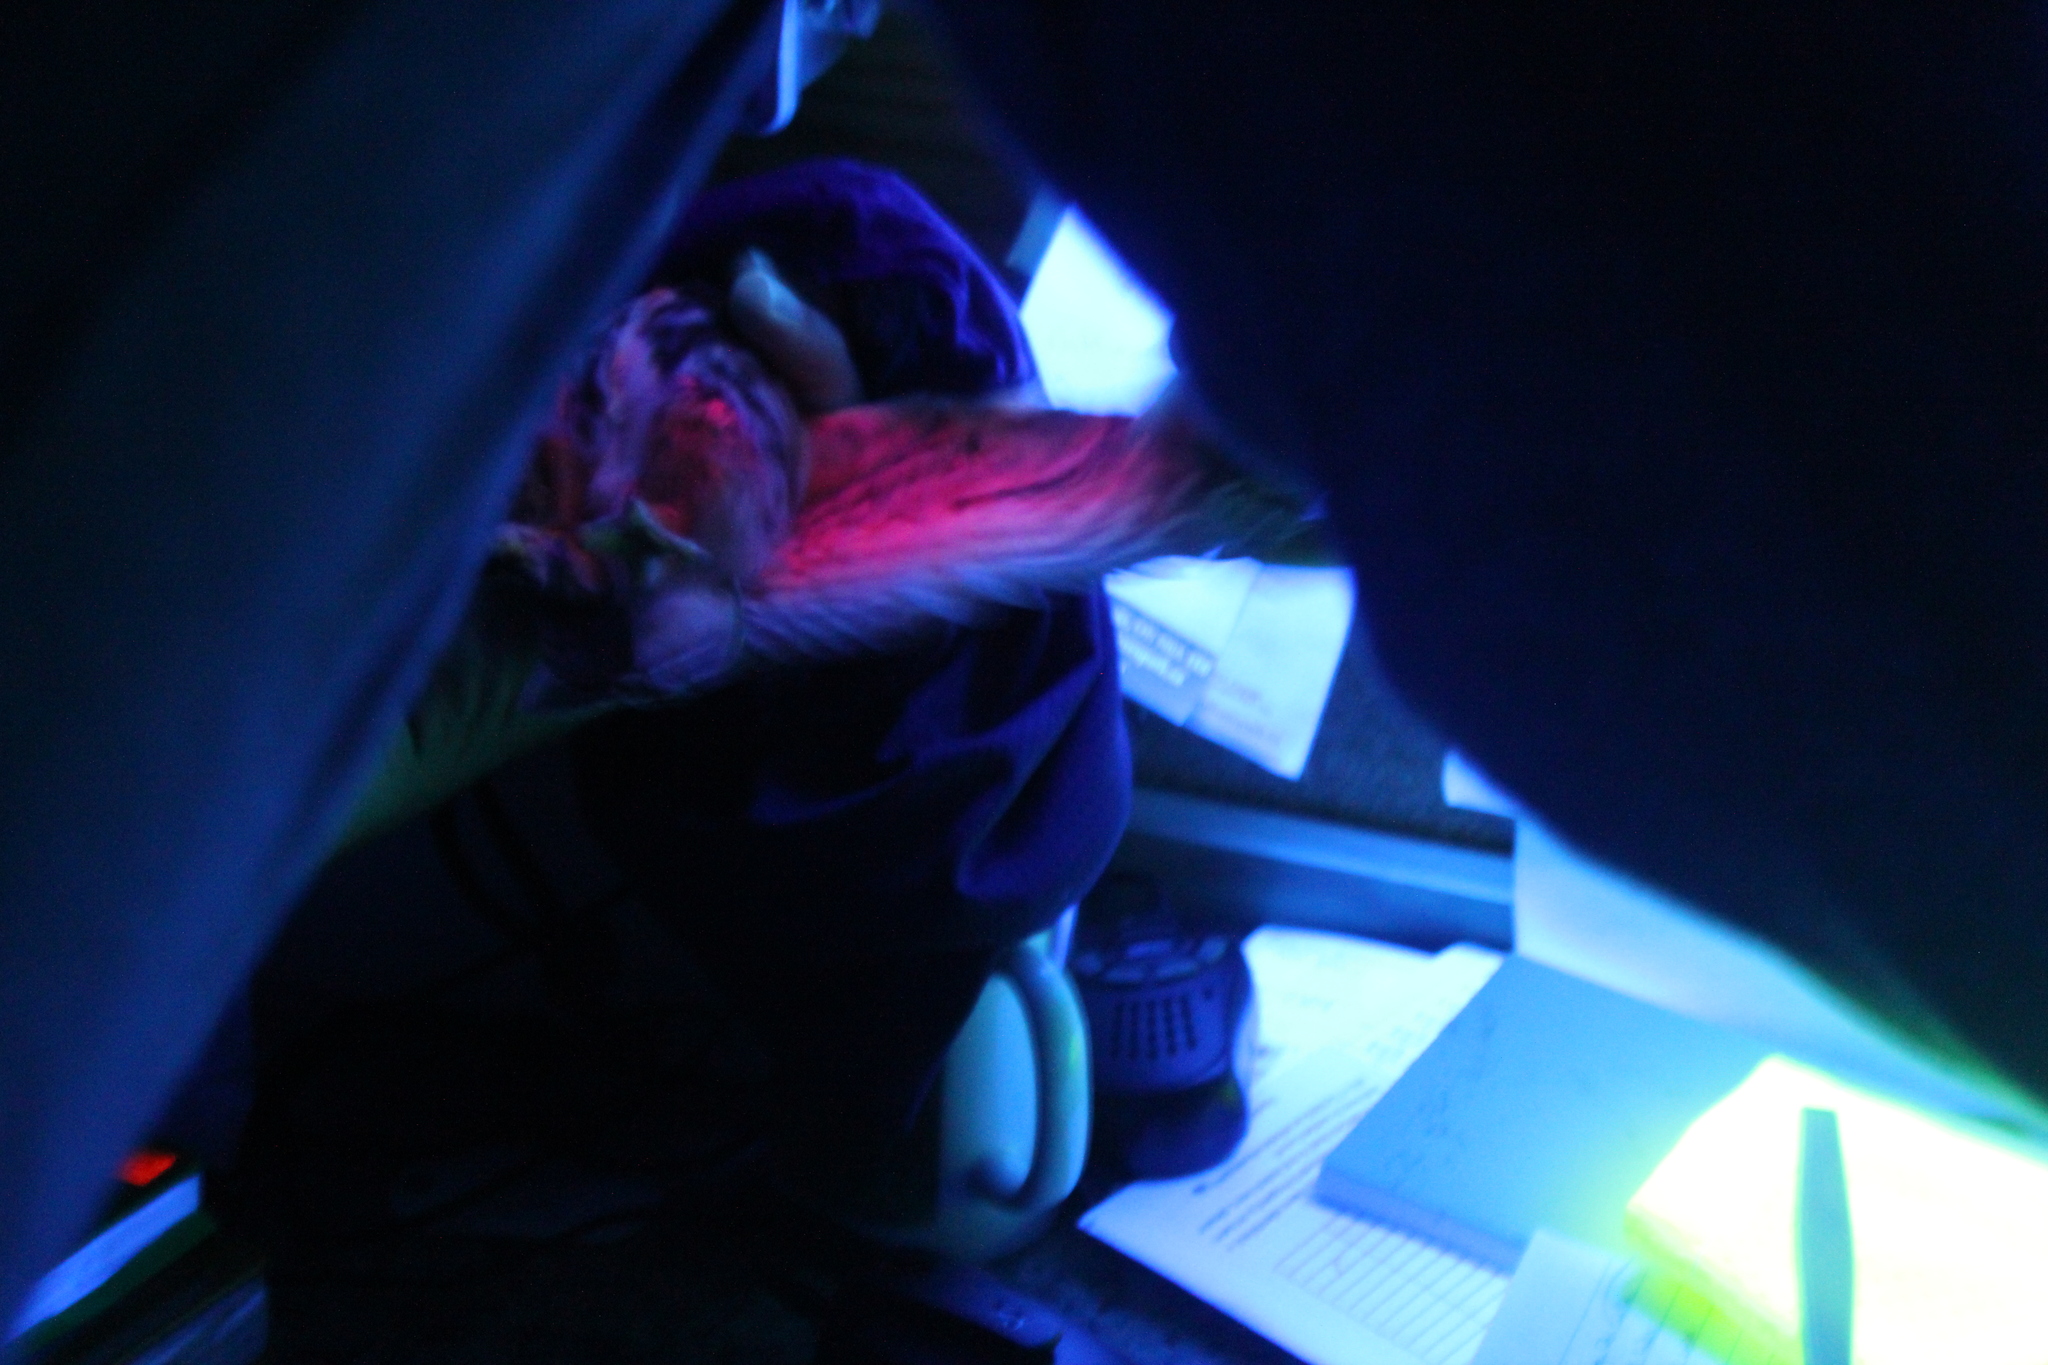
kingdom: Animalia
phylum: Chordata
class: Aves
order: Strigiformes
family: Strigidae
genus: Aegolius
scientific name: Aegolius acadicus
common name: Northern saw-whet owl
